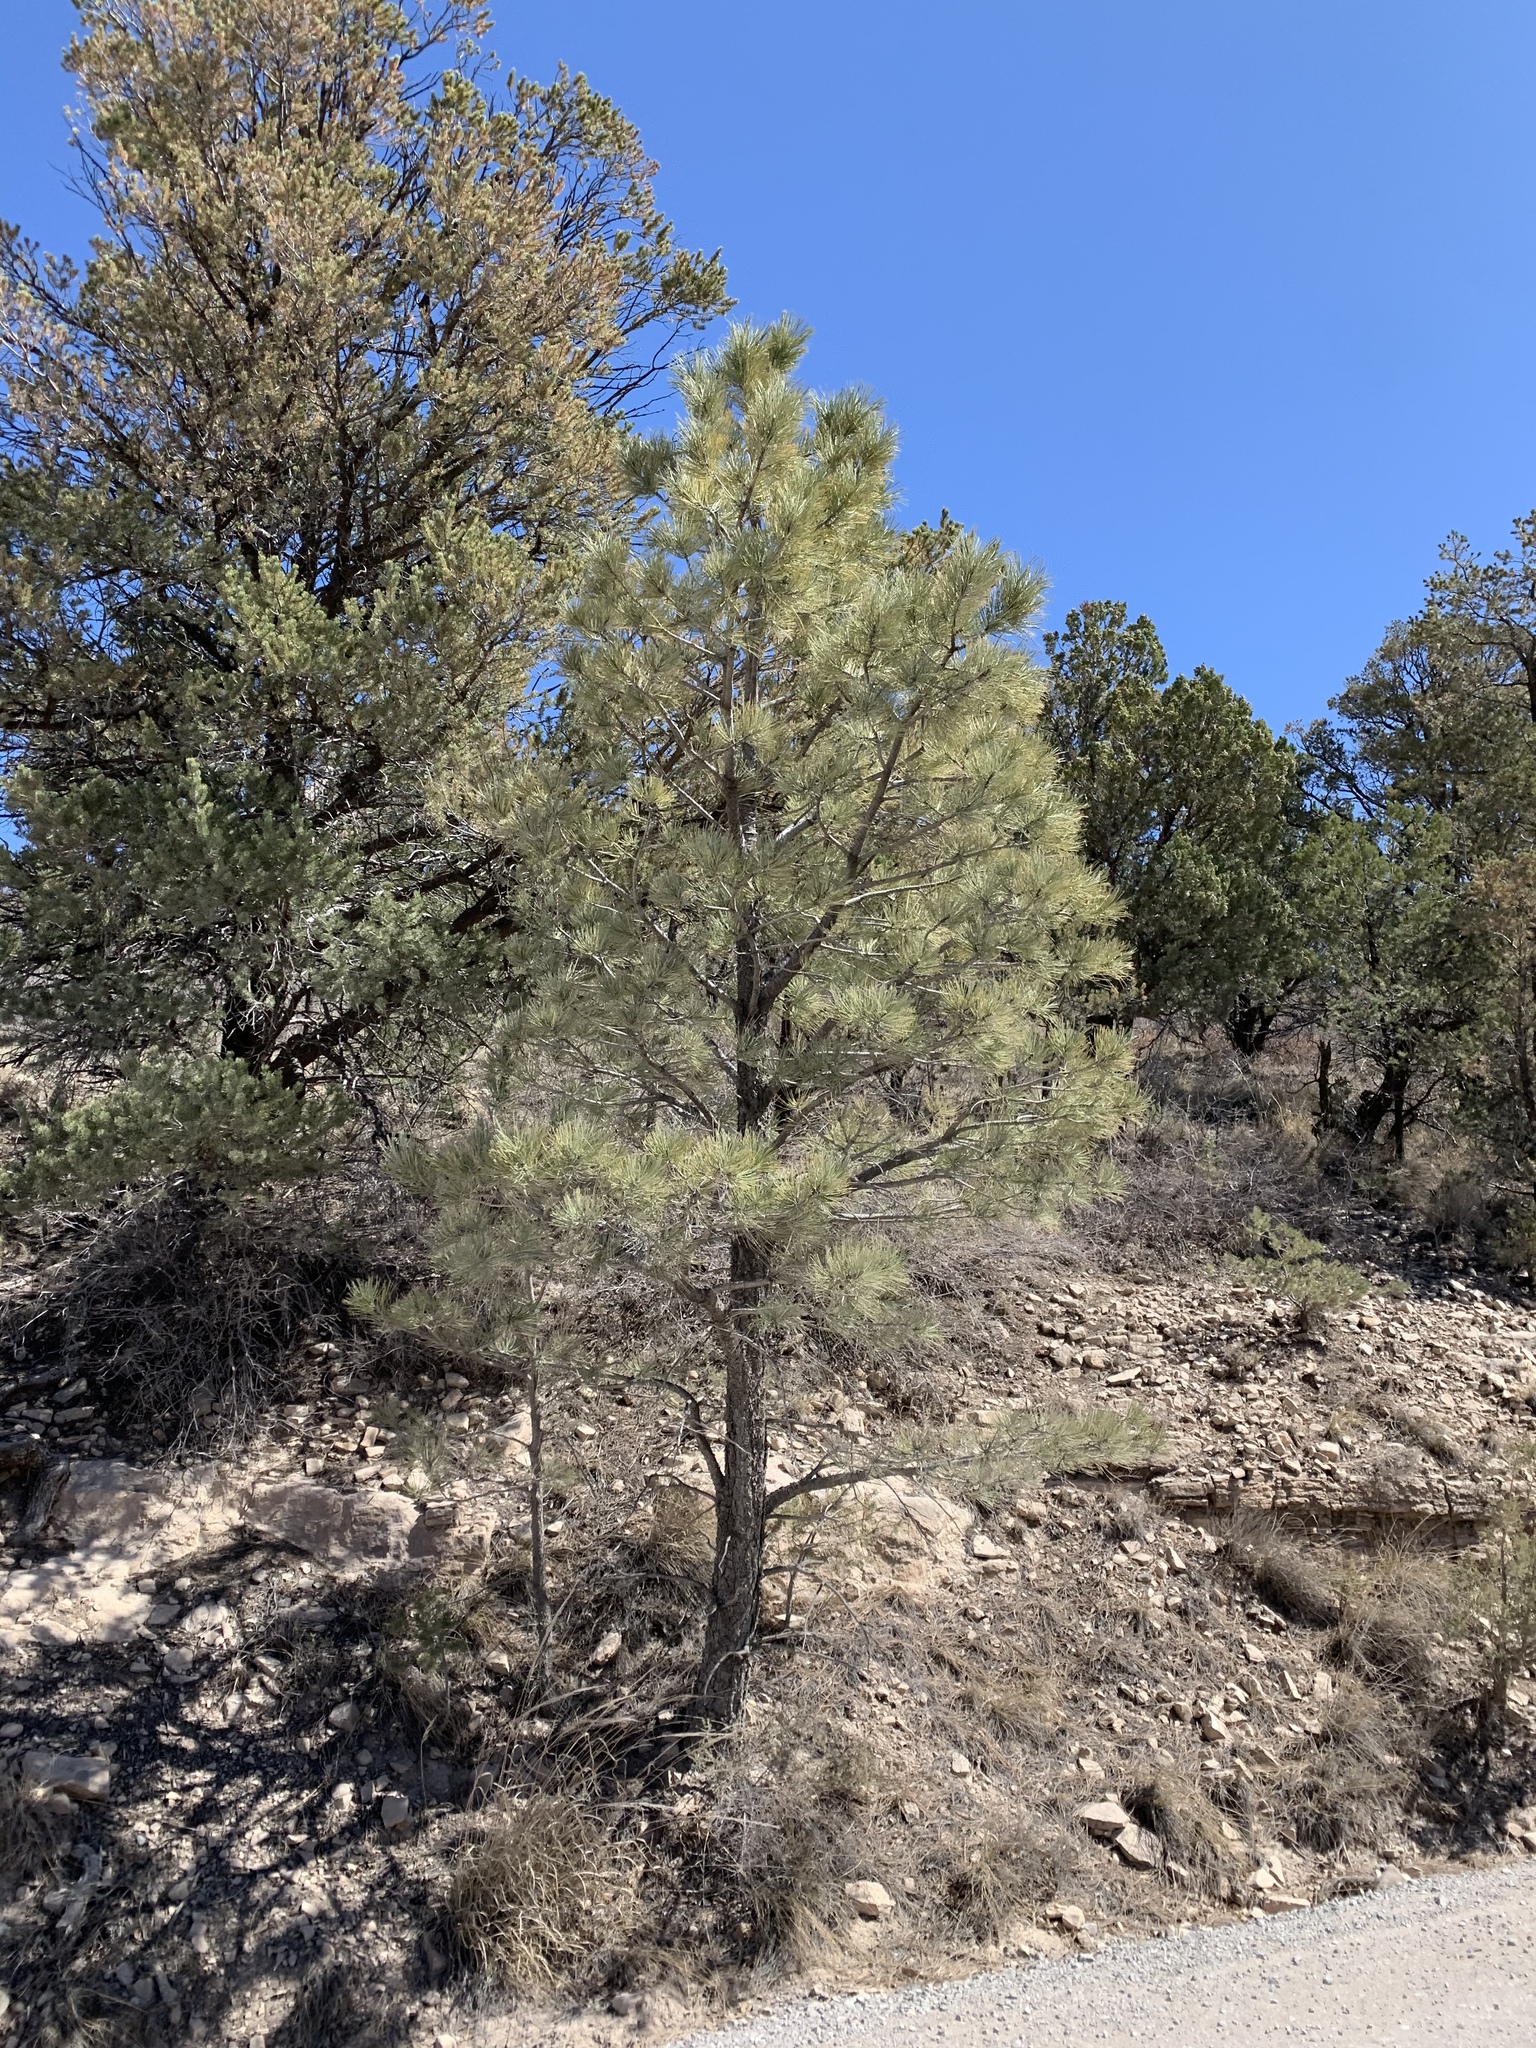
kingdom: Plantae
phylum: Tracheophyta
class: Pinopsida
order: Pinales
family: Pinaceae
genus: Pinus
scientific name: Pinus ponderosa
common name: Western yellow-pine
